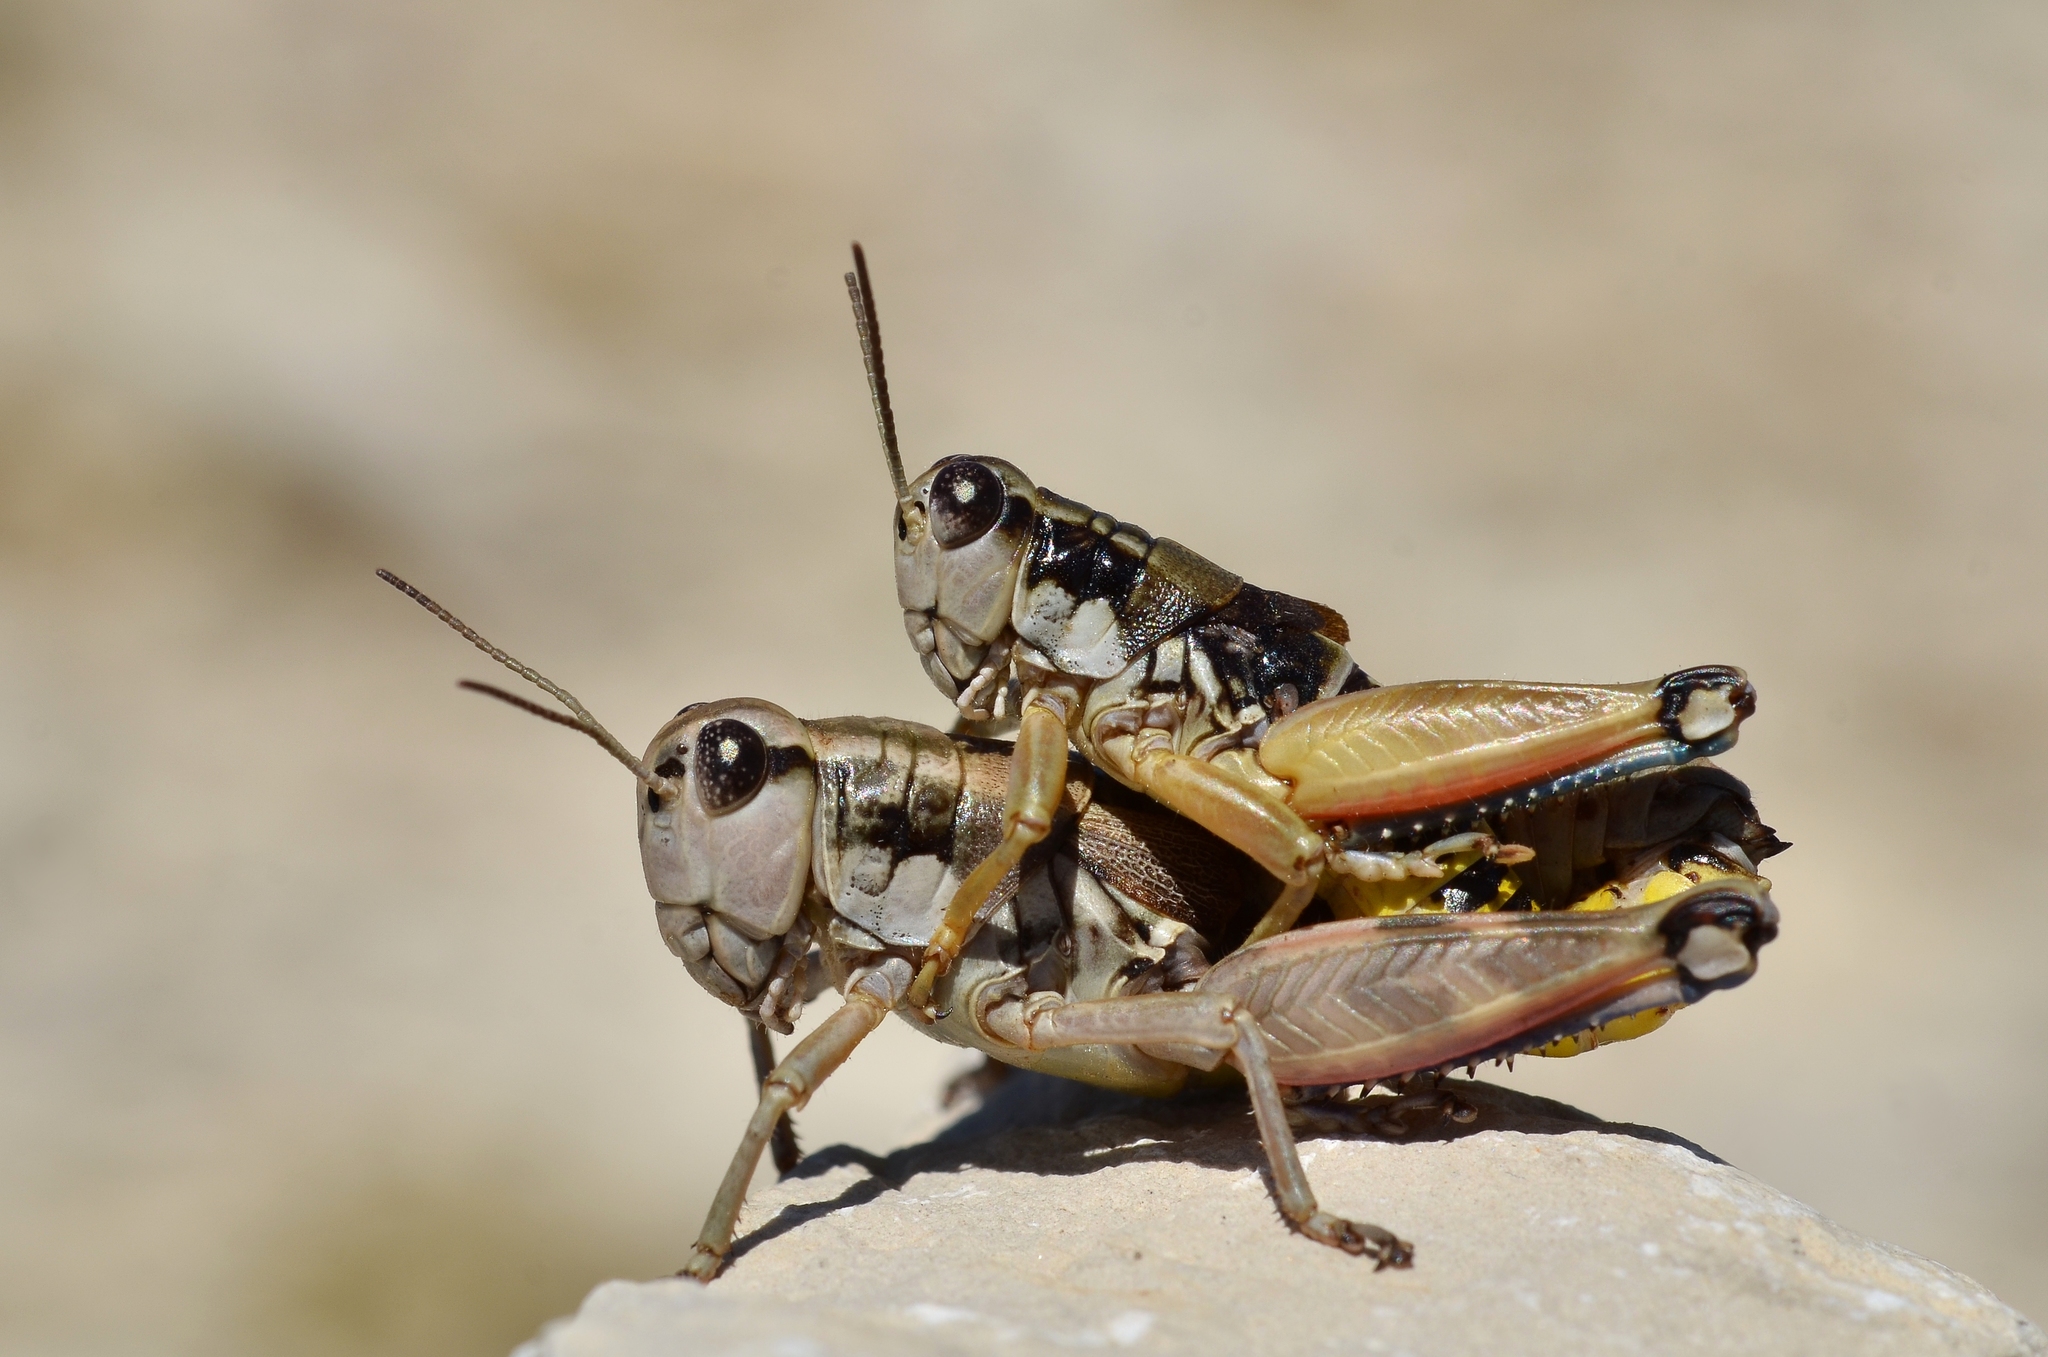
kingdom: Animalia
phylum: Arthropoda
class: Insecta
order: Orthoptera
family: Acrididae
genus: Podisma
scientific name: Podisma pedestris
